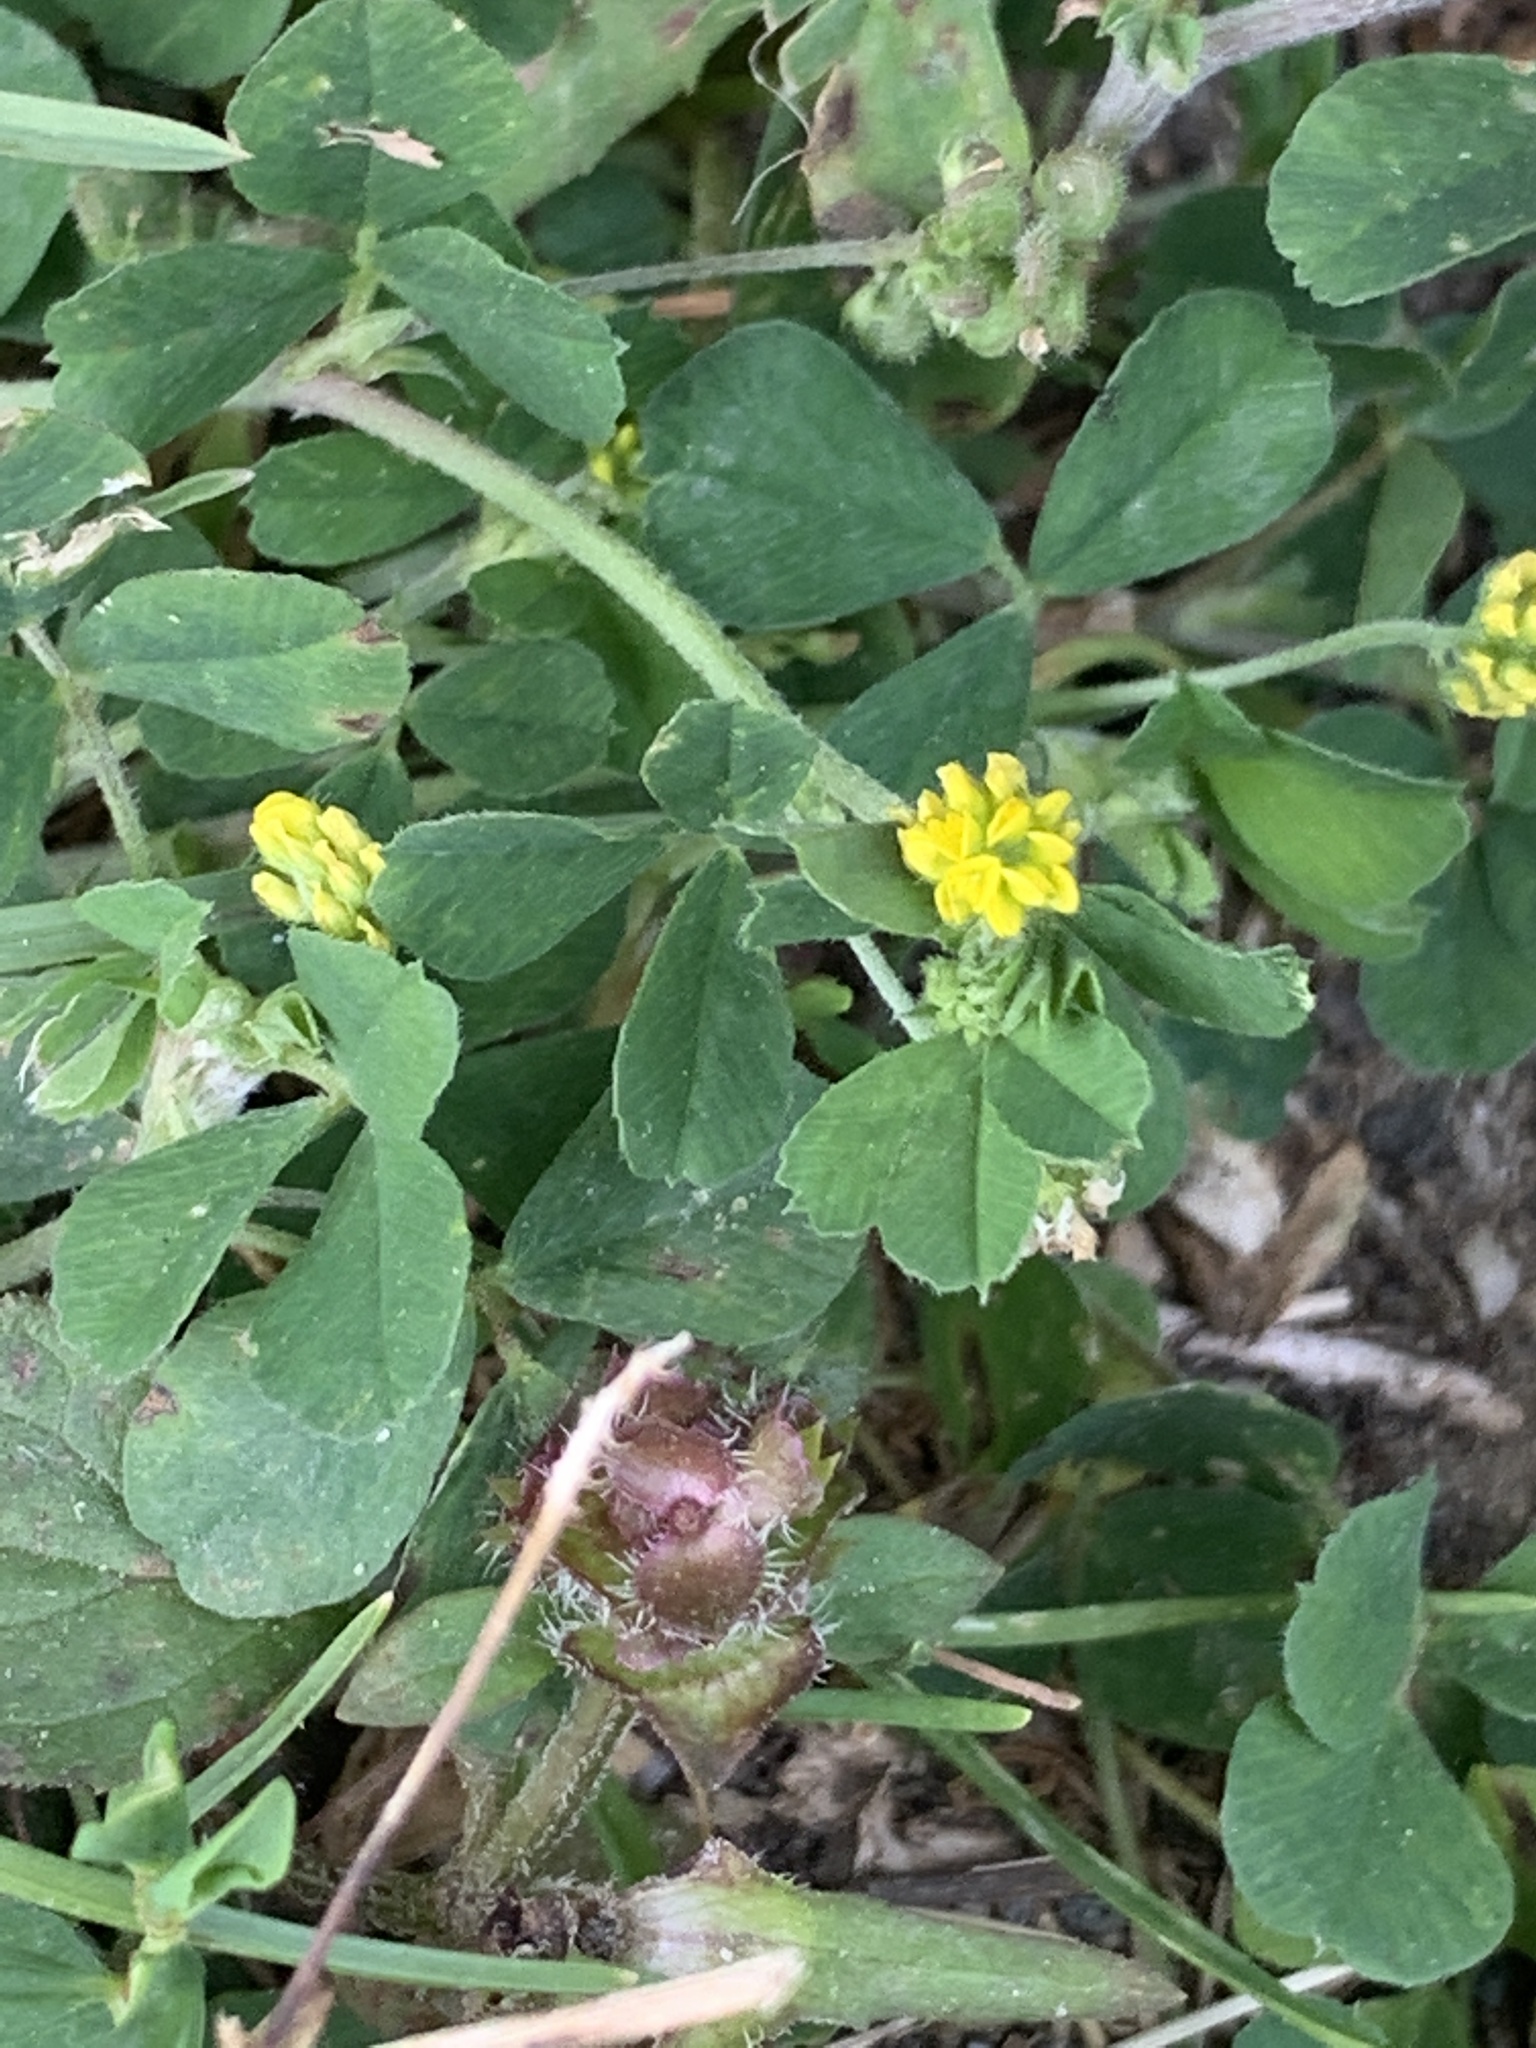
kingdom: Plantae
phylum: Tracheophyta
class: Magnoliopsida
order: Fabales
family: Fabaceae
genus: Medicago
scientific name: Medicago lupulina
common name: Black medick
